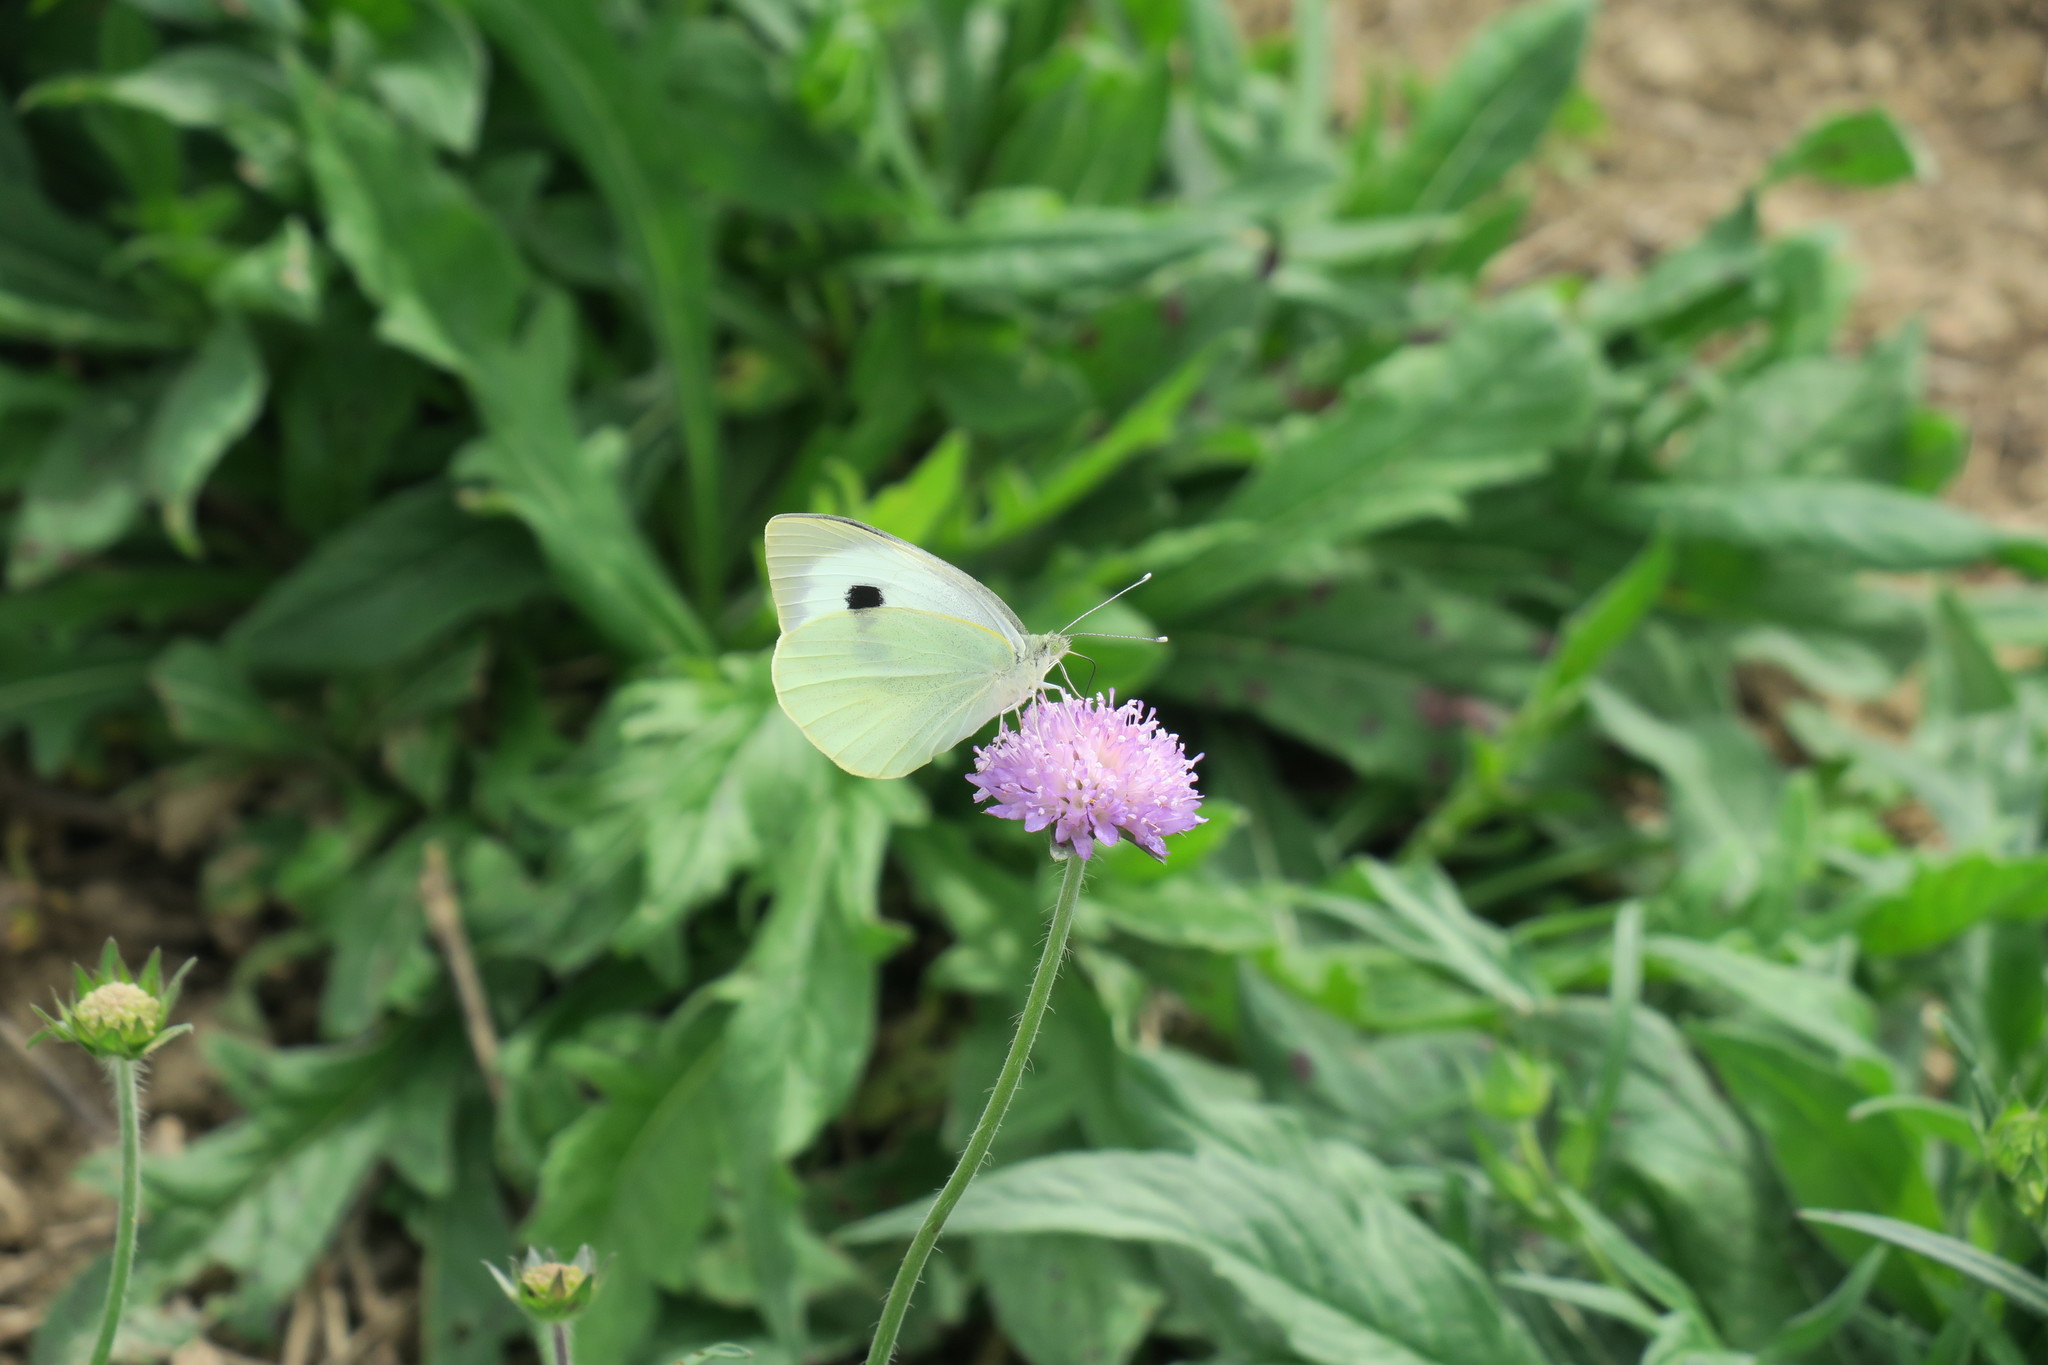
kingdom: Animalia
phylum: Arthropoda
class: Insecta
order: Lepidoptera
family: Pieridae
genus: Pieris
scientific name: Pieris brassicae
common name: Large white
